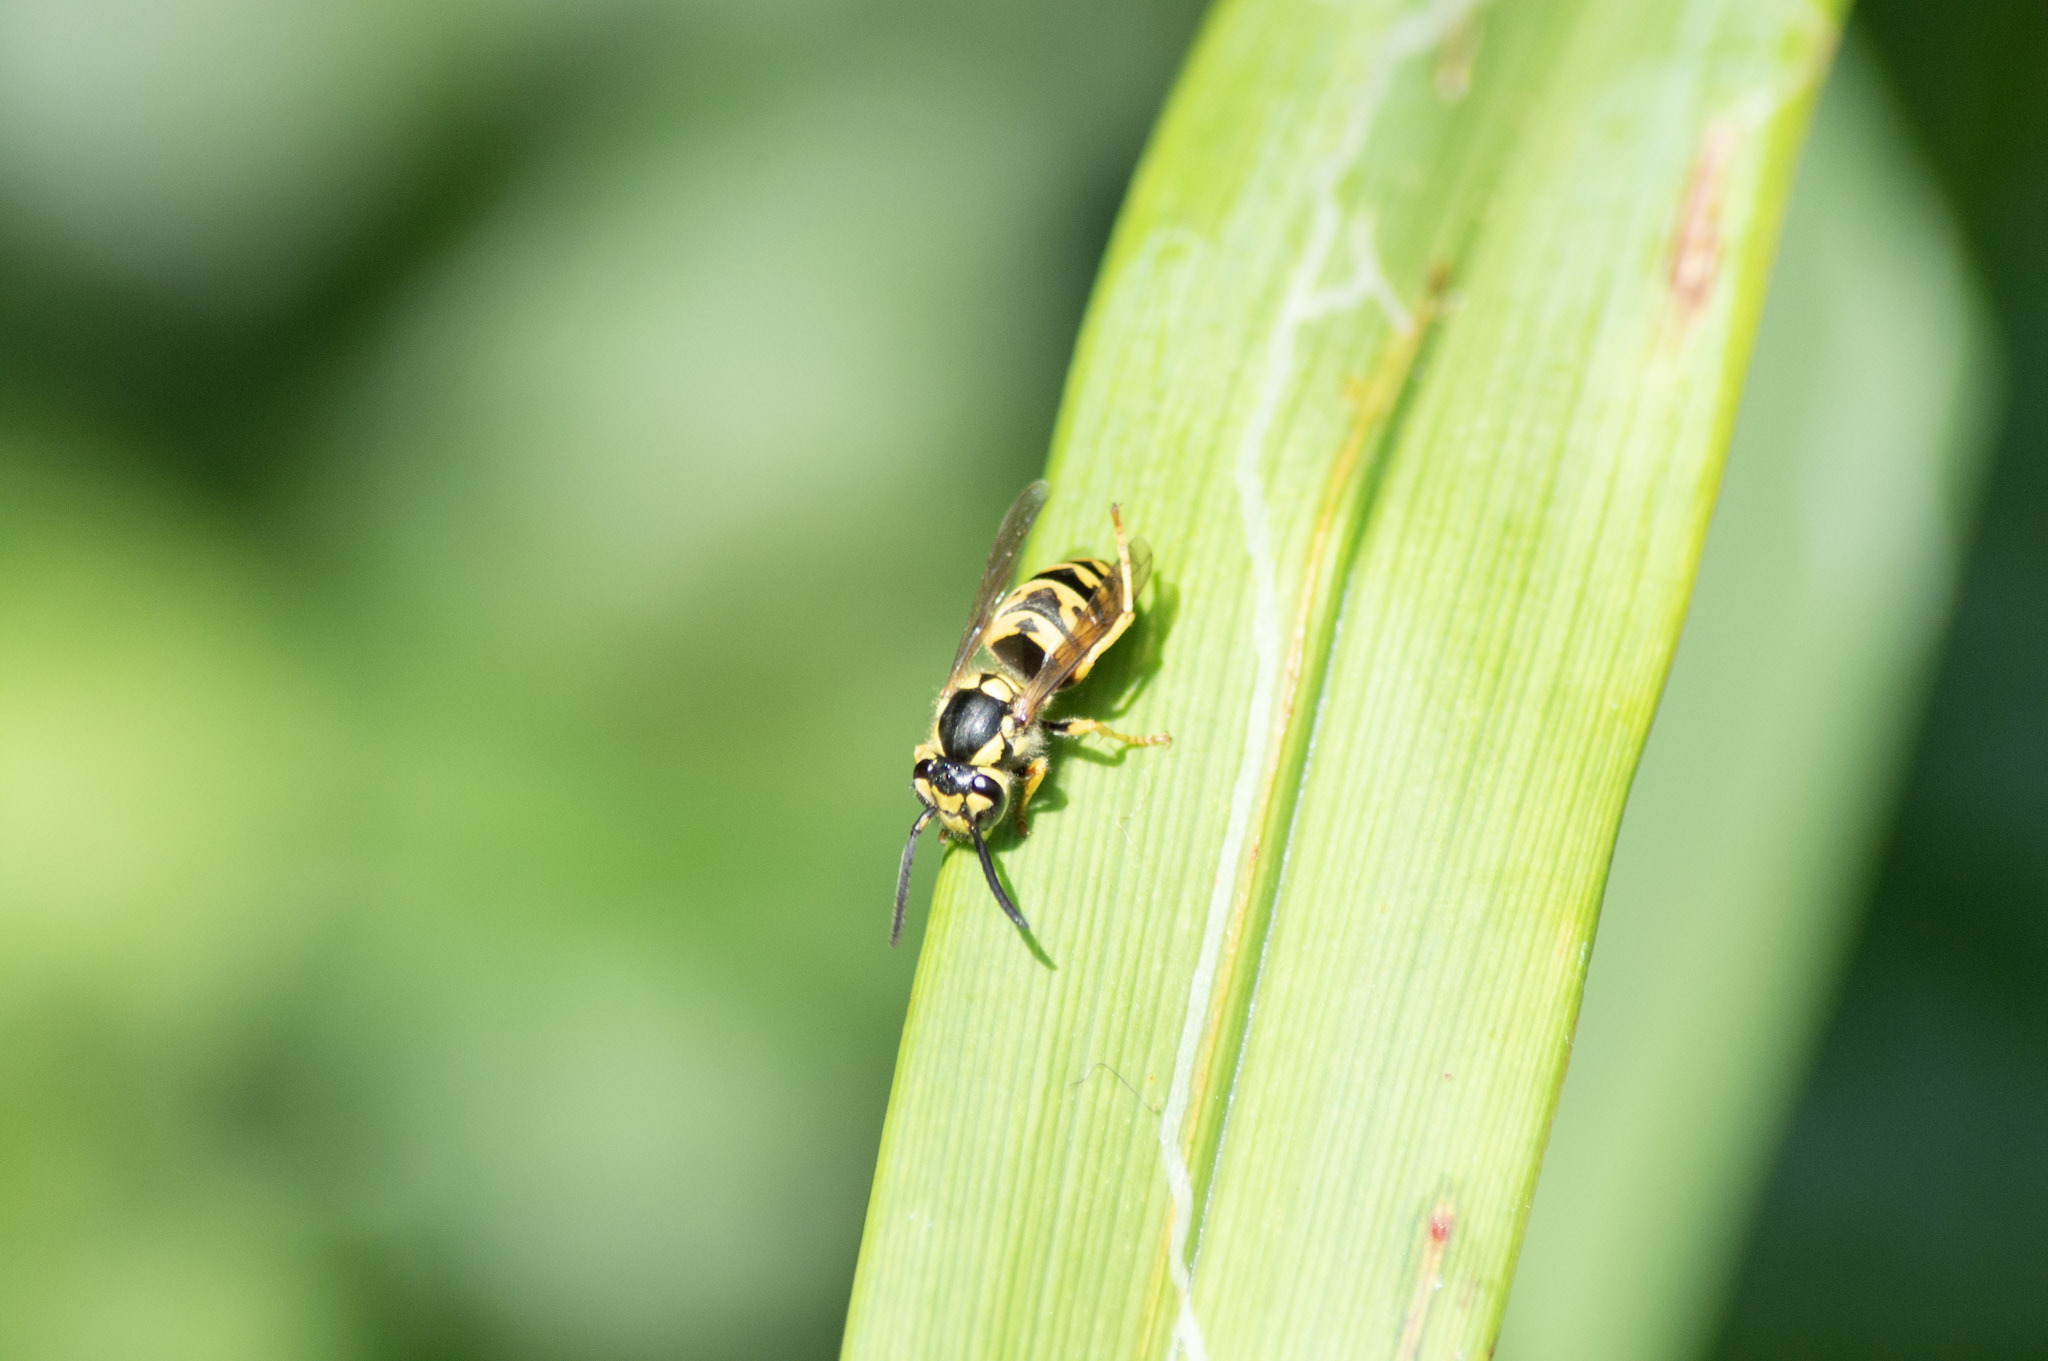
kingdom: Animalia
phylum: Arthropoda
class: Insecta
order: Hymenoptera
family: Vespidae
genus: Vespula
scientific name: Vespula germanica
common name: German wasp
